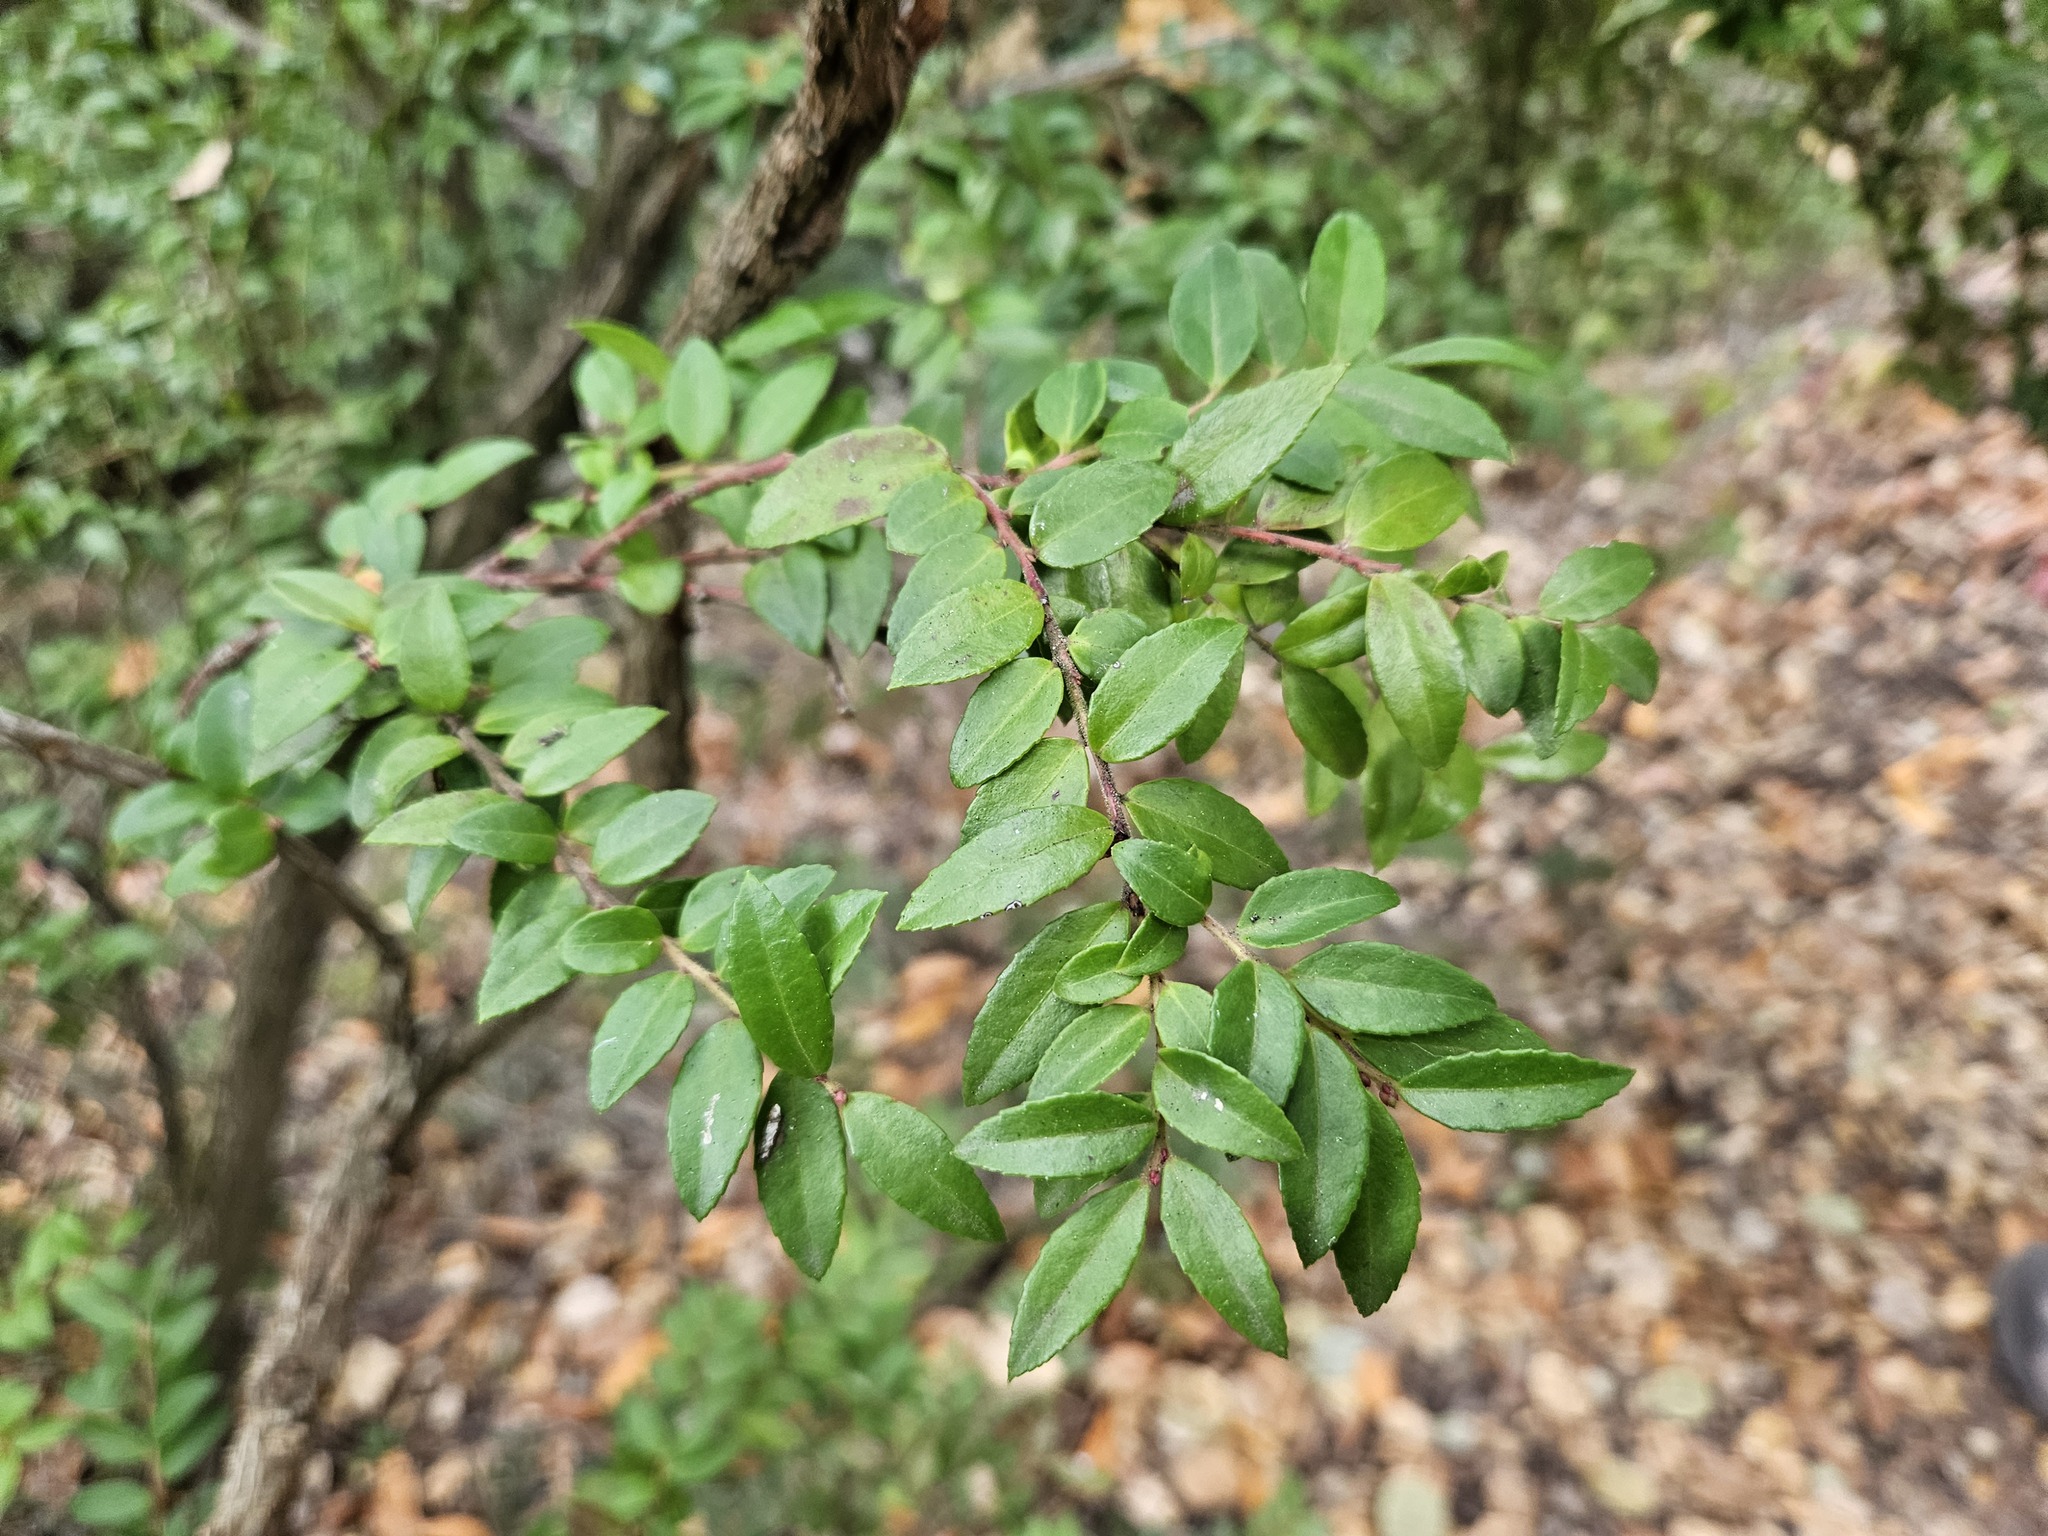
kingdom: Plantae
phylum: Tracheophyta
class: Magnoliopsida
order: Ericales
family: Ericaceae
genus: Vaccinium
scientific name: Vaccinium ovatum
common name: California-huckleberry
